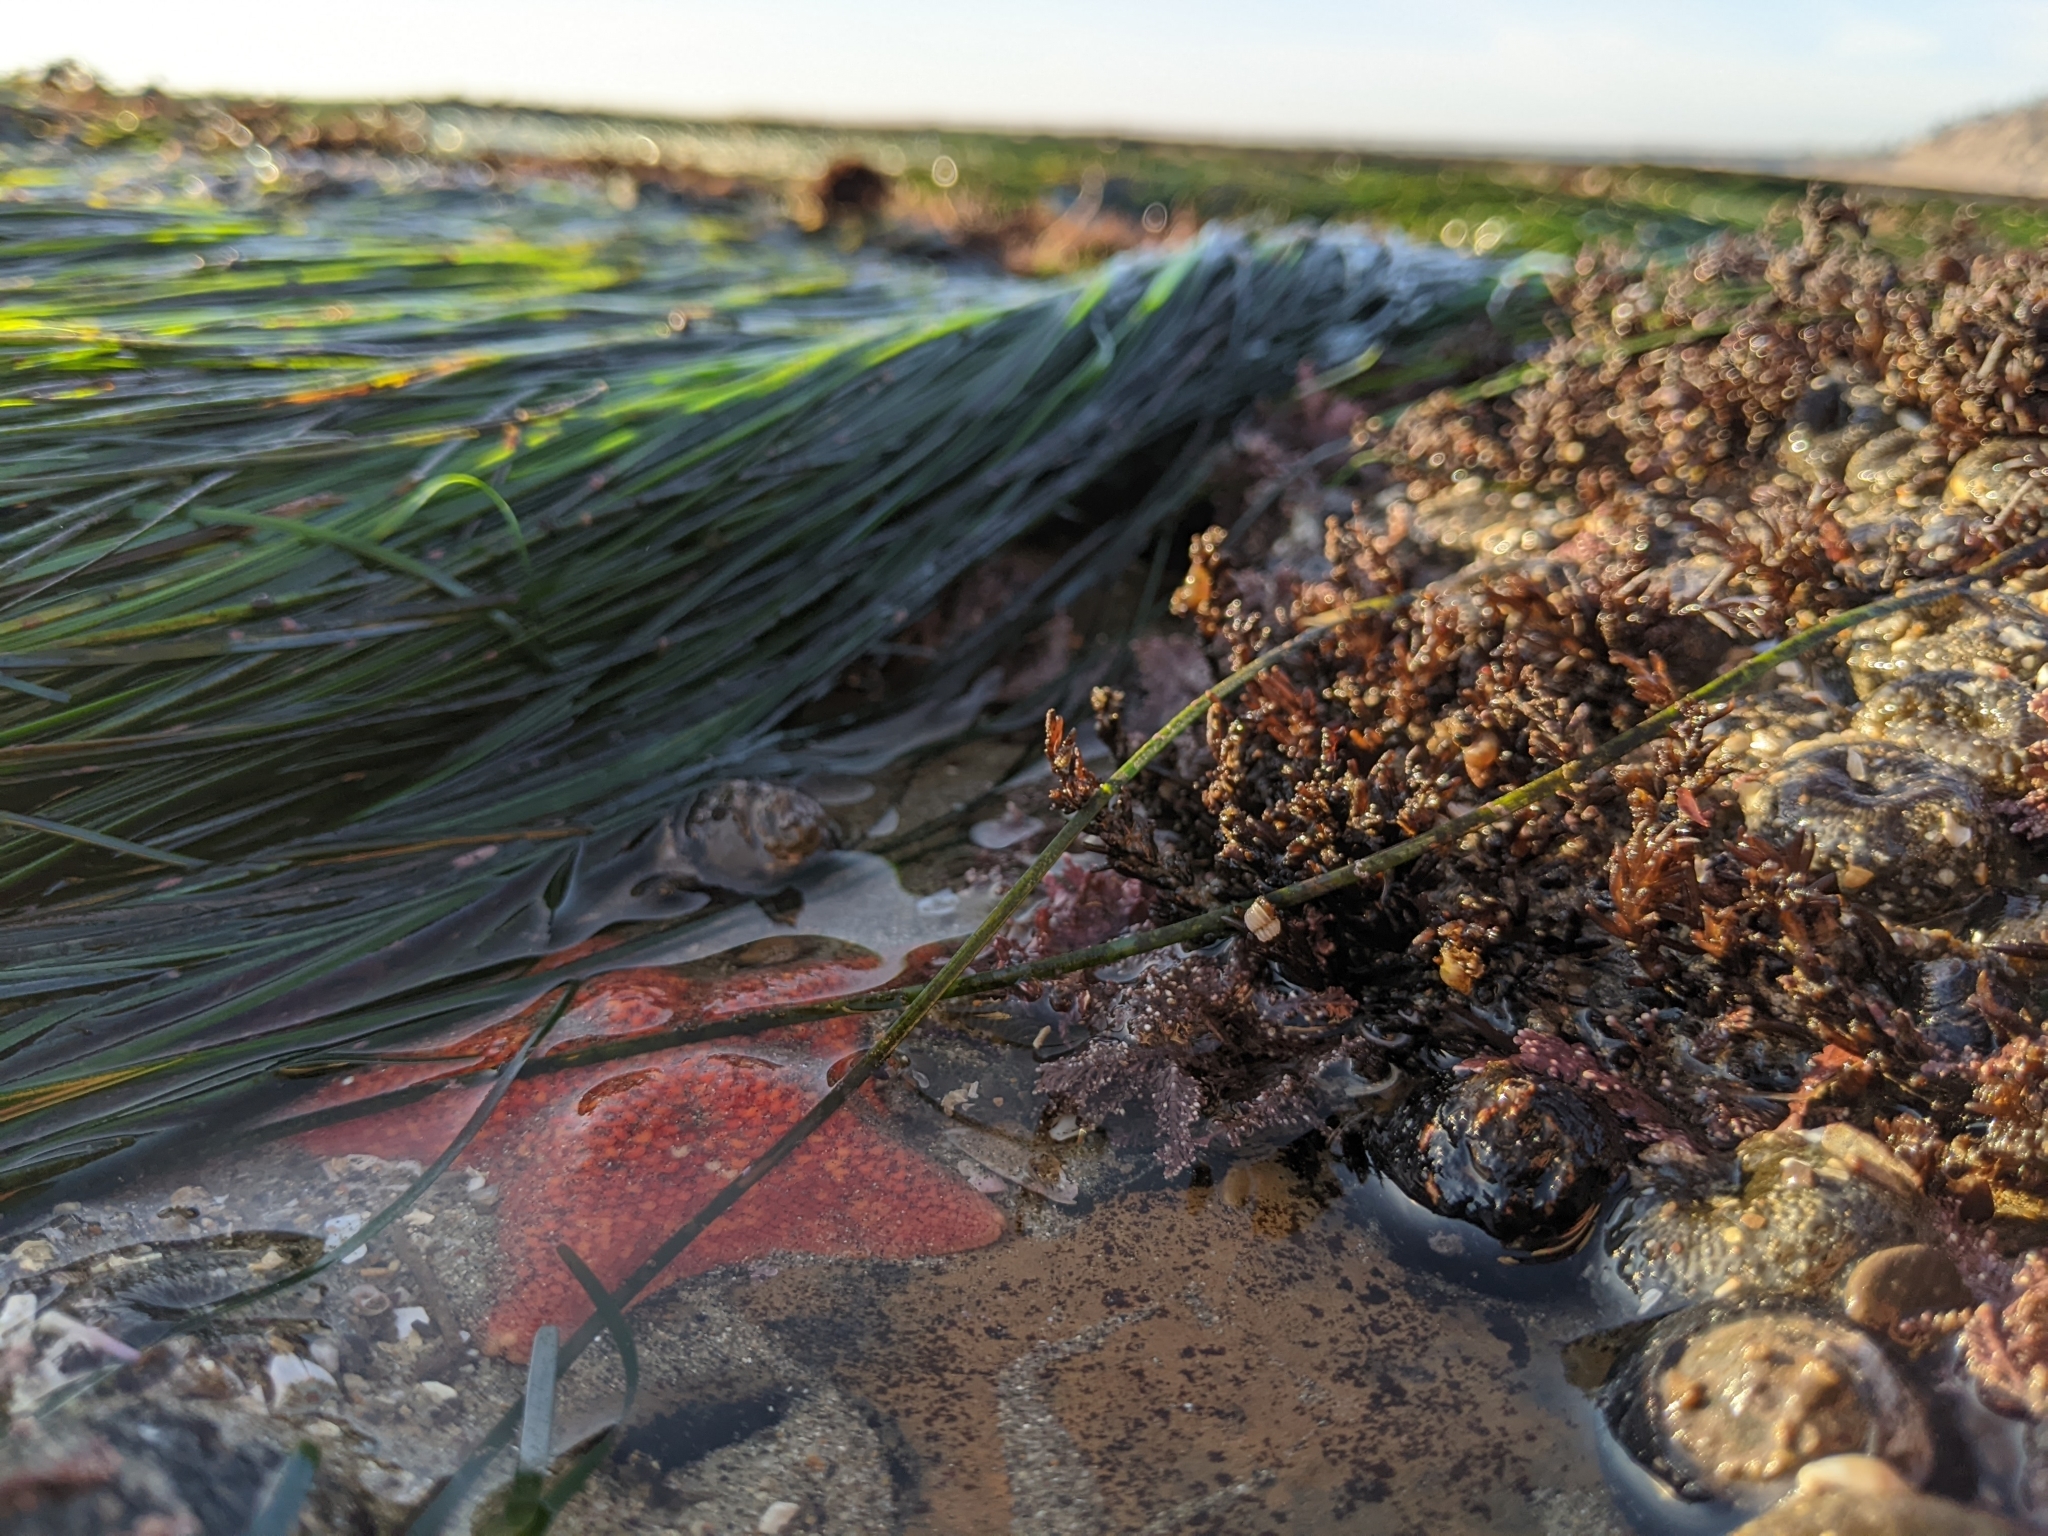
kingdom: Animalia
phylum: Echinodermata
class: Asteroidea
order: Valvatida
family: Asterinidae
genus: Patiria
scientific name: Patiria miniata
